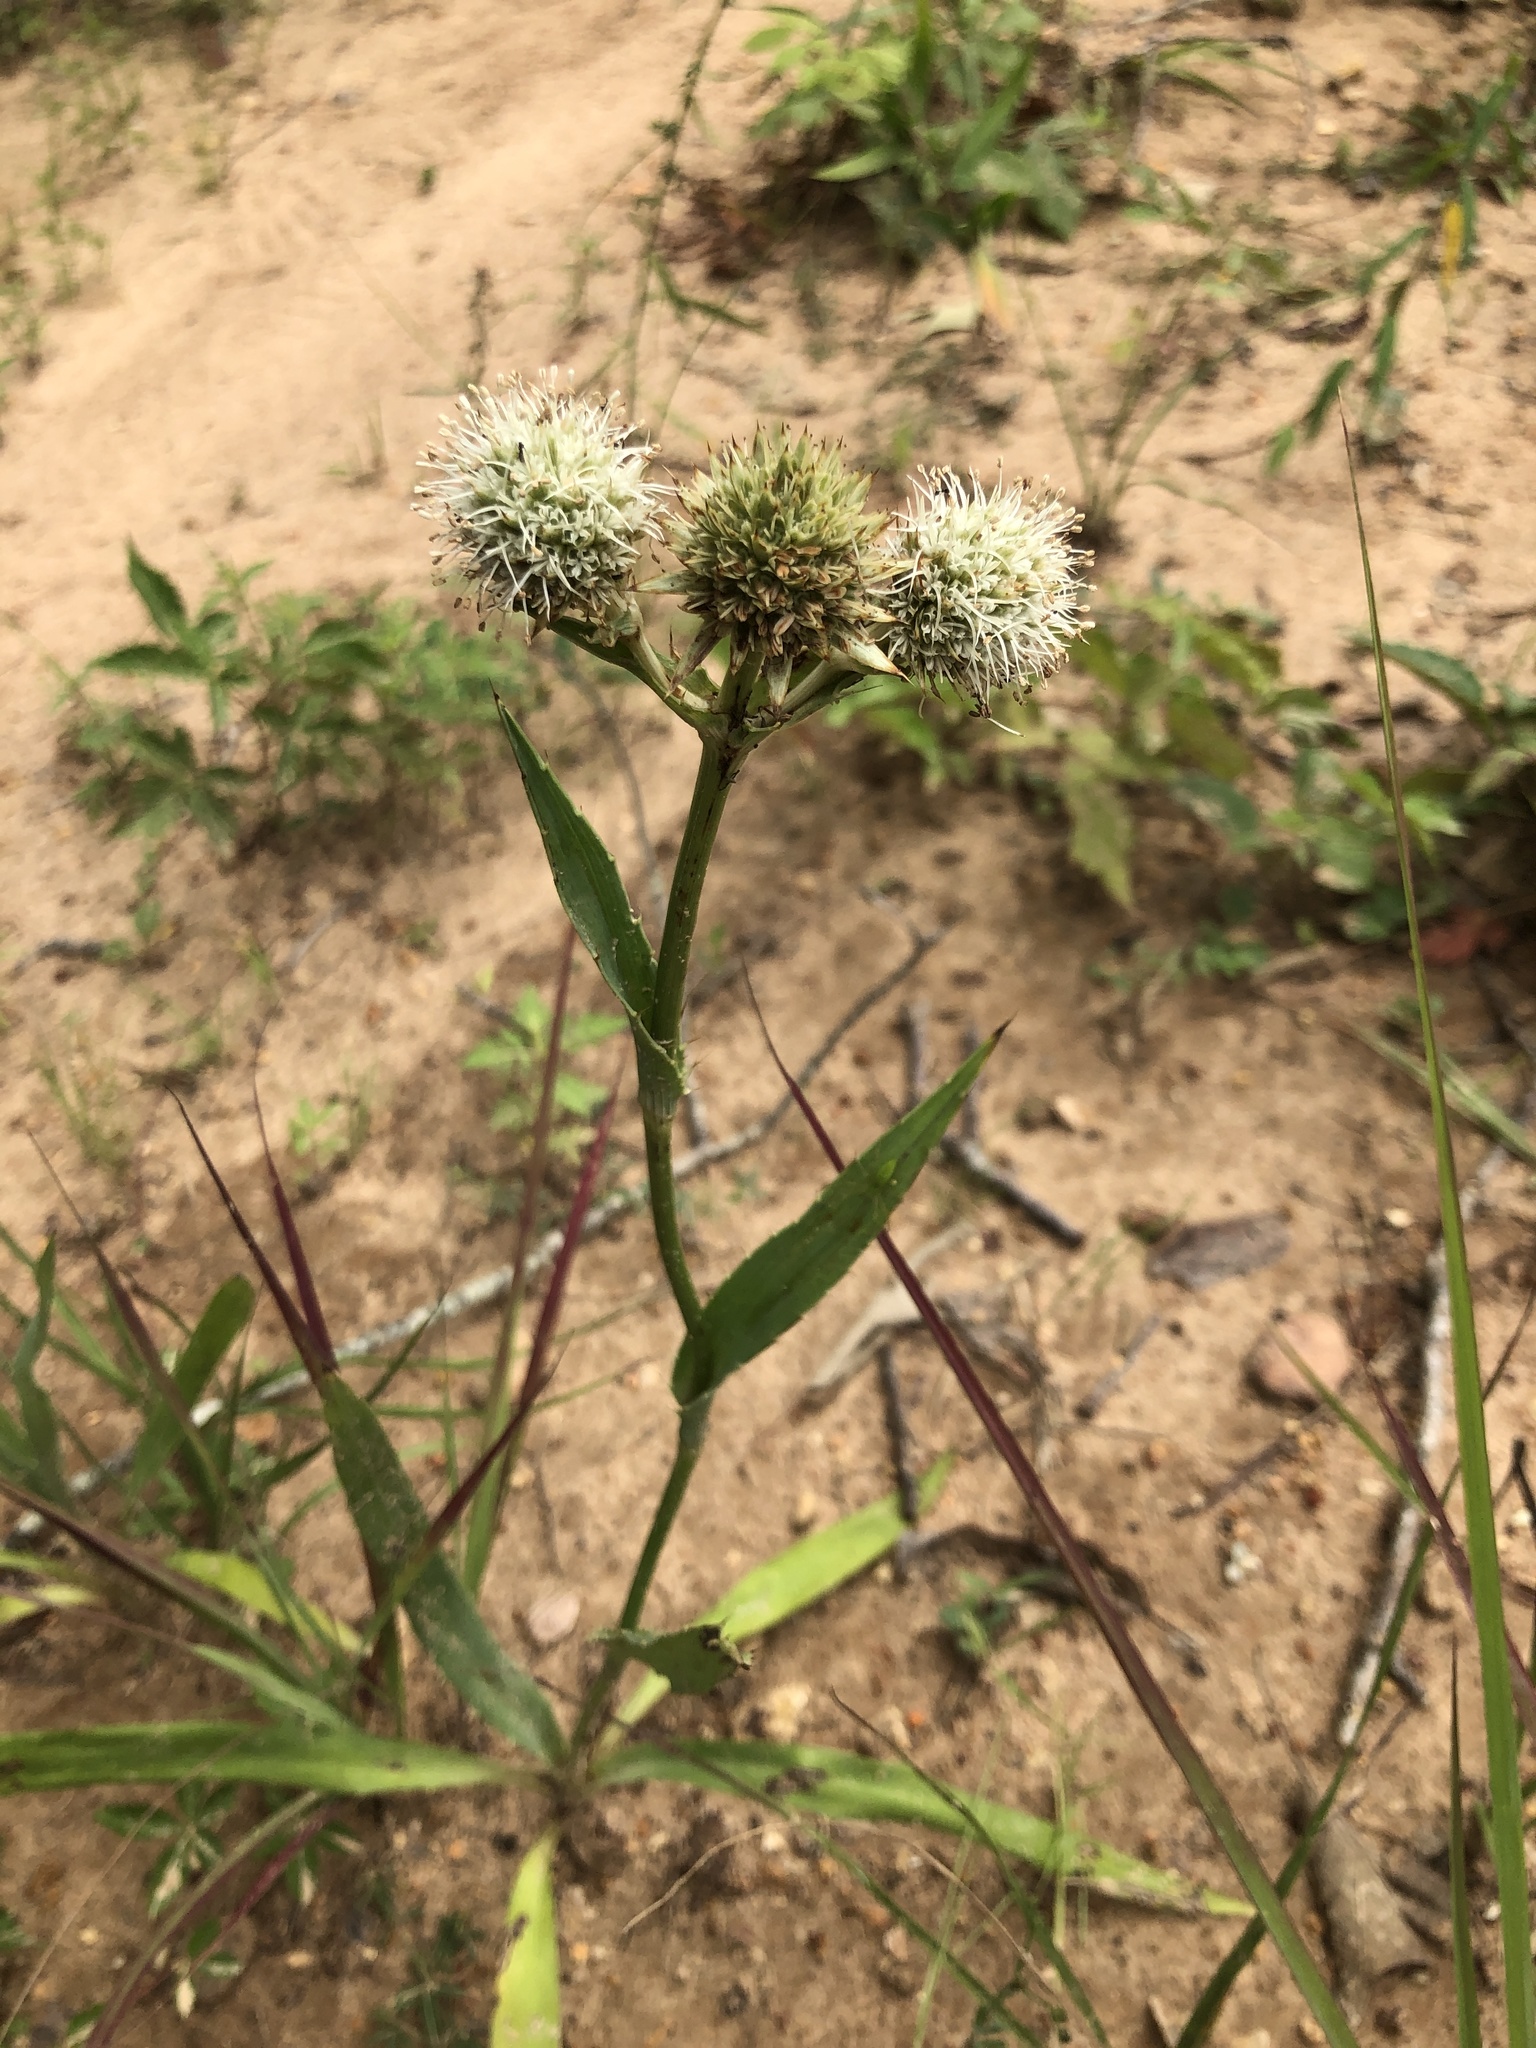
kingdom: Plantae
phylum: Tracheophyta
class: Magnoliopsida
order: Apiales
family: Apiaceae
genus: Eryngium
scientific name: Eryngium yuccifolium
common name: Button eryngo
